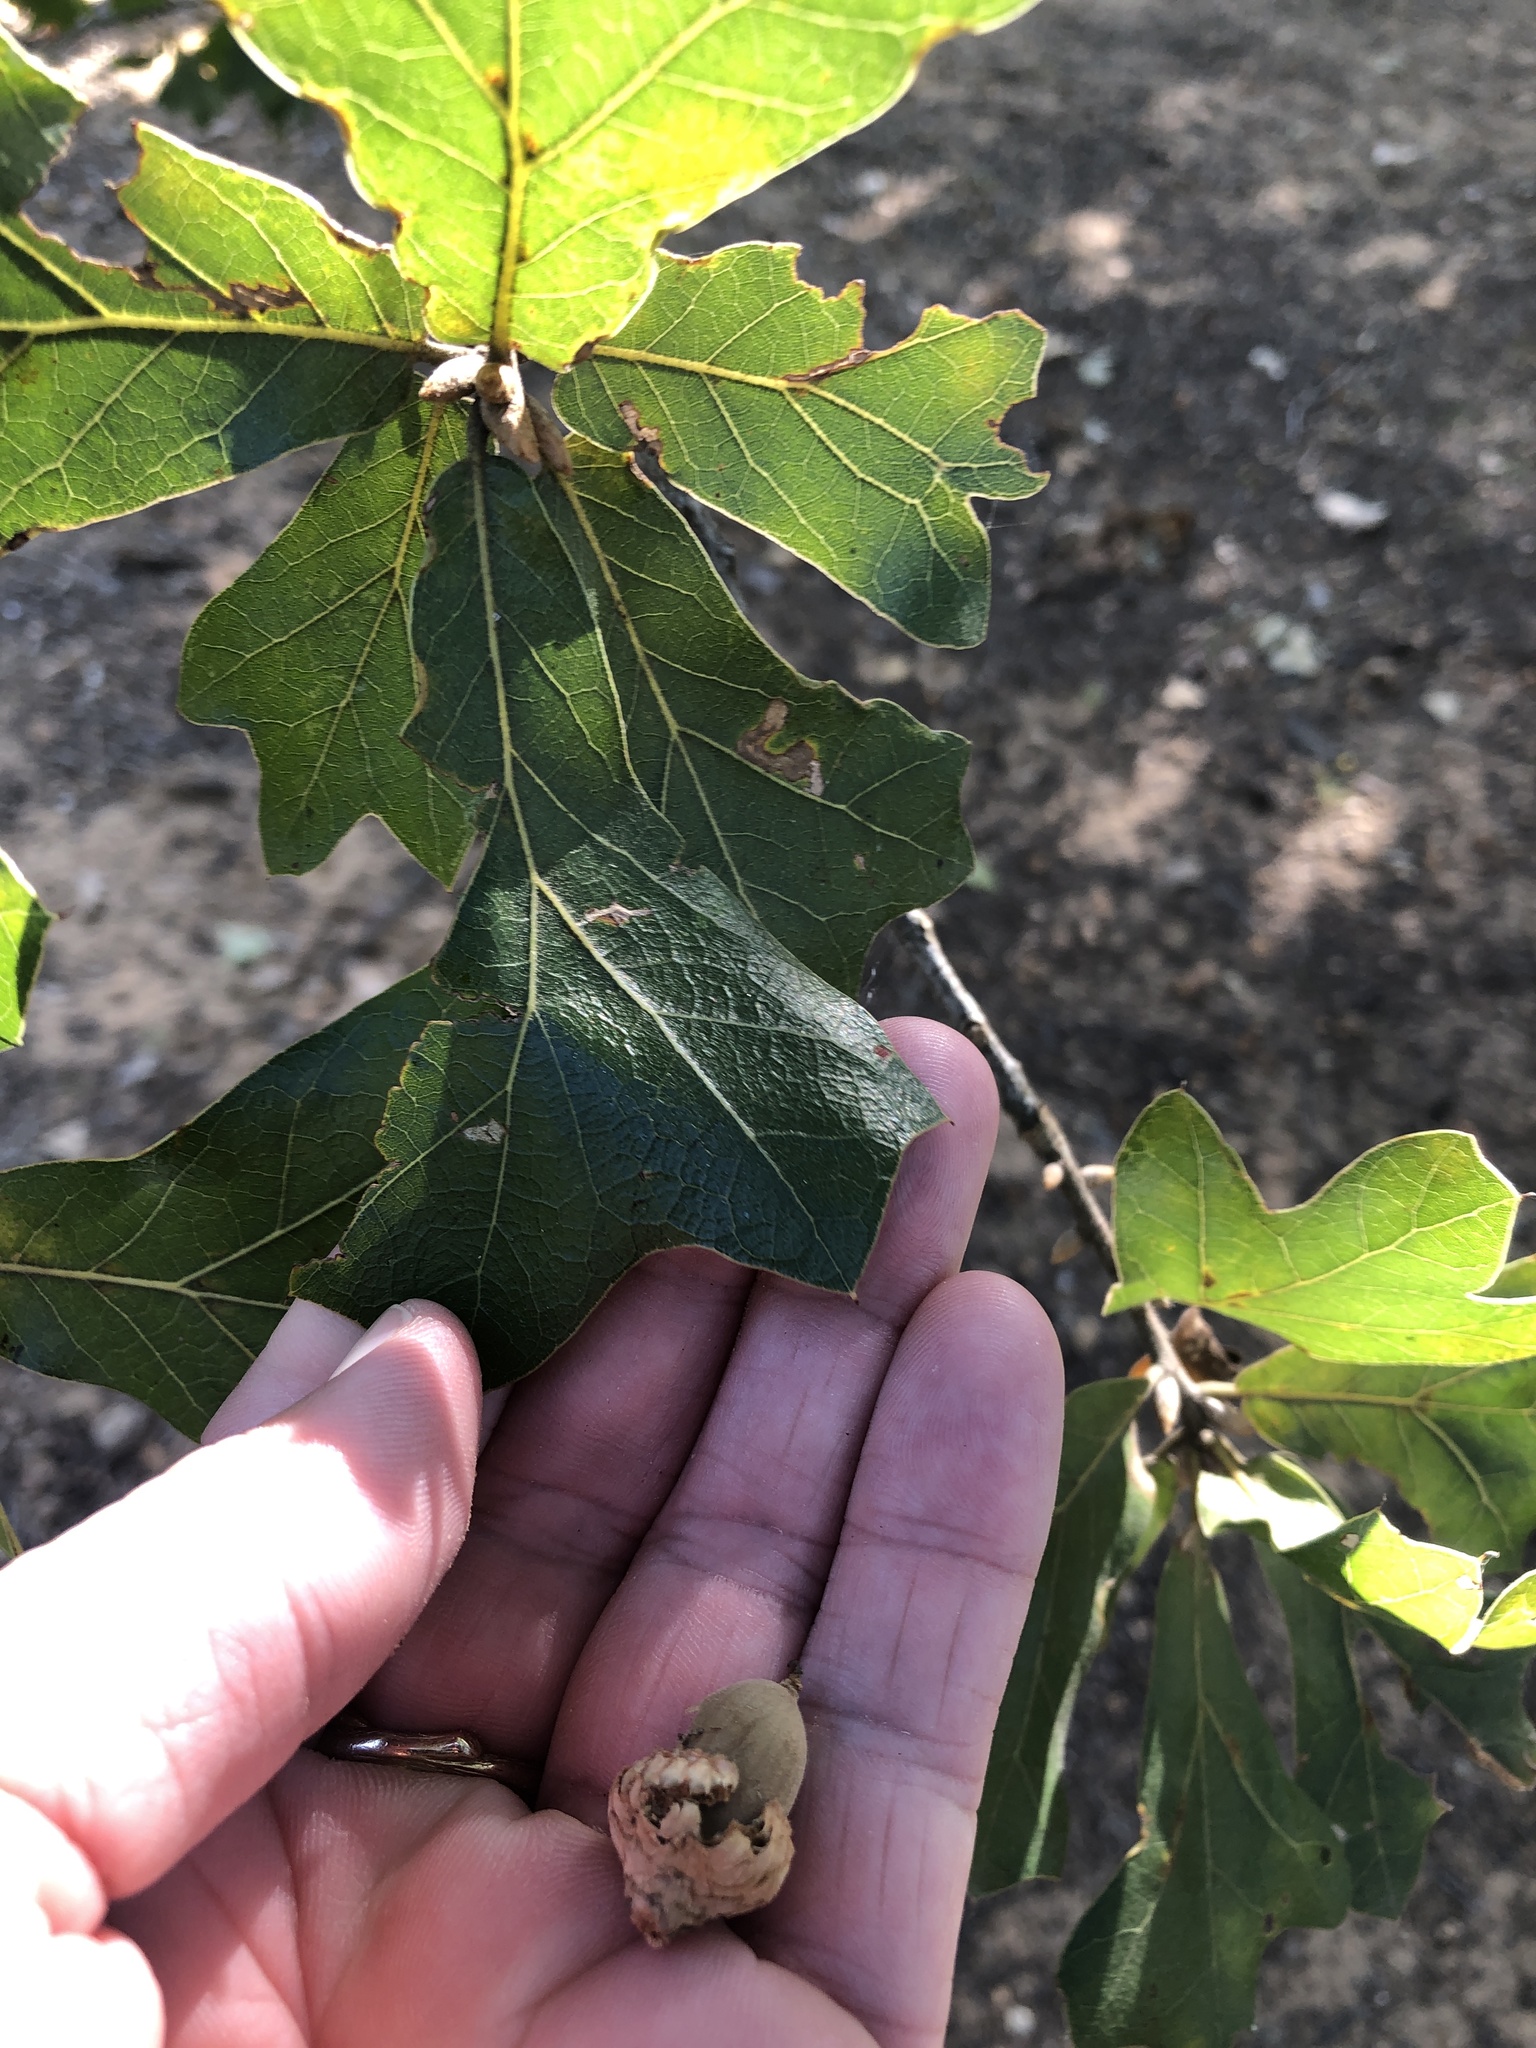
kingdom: Plantae
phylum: Tracheophyta
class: Magnoliopsida
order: Fagales
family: Fagaceae
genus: Quercus
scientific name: Quercus marilandica
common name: Blackjack oak
